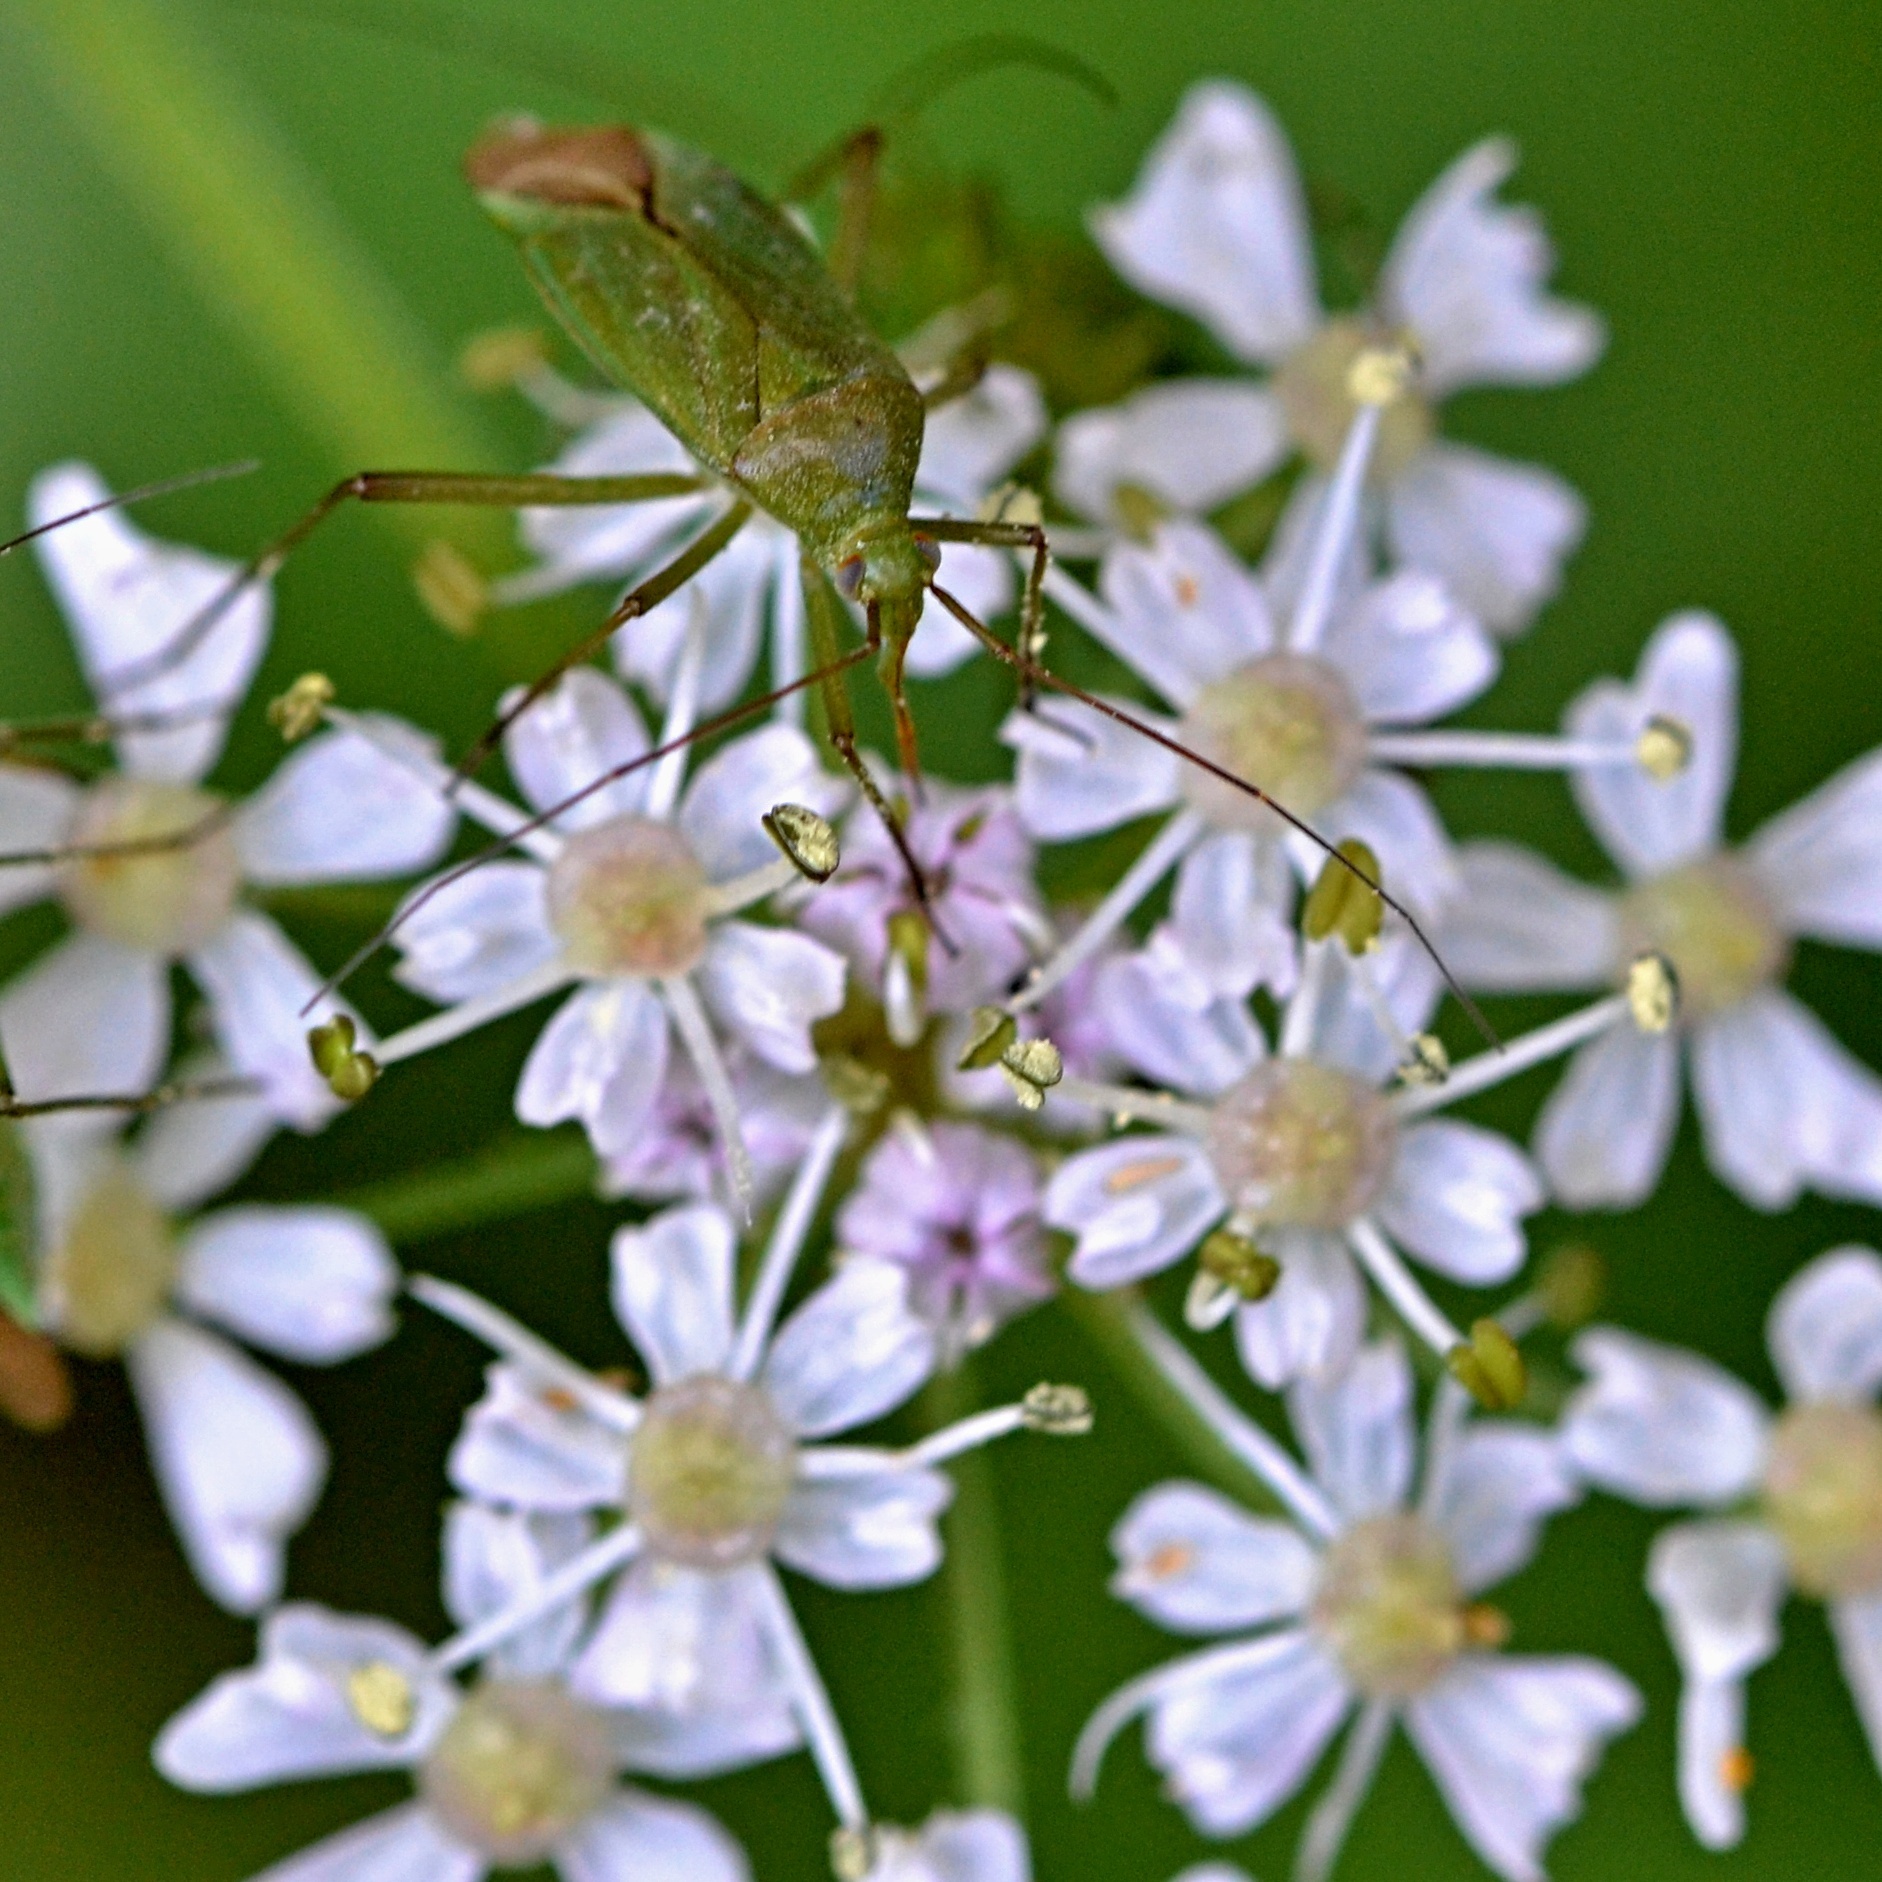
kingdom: Animalia
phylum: Arthropoda
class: Insecta
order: Hemiptera
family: Miridae
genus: Calocoris
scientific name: Calocoris affinis
